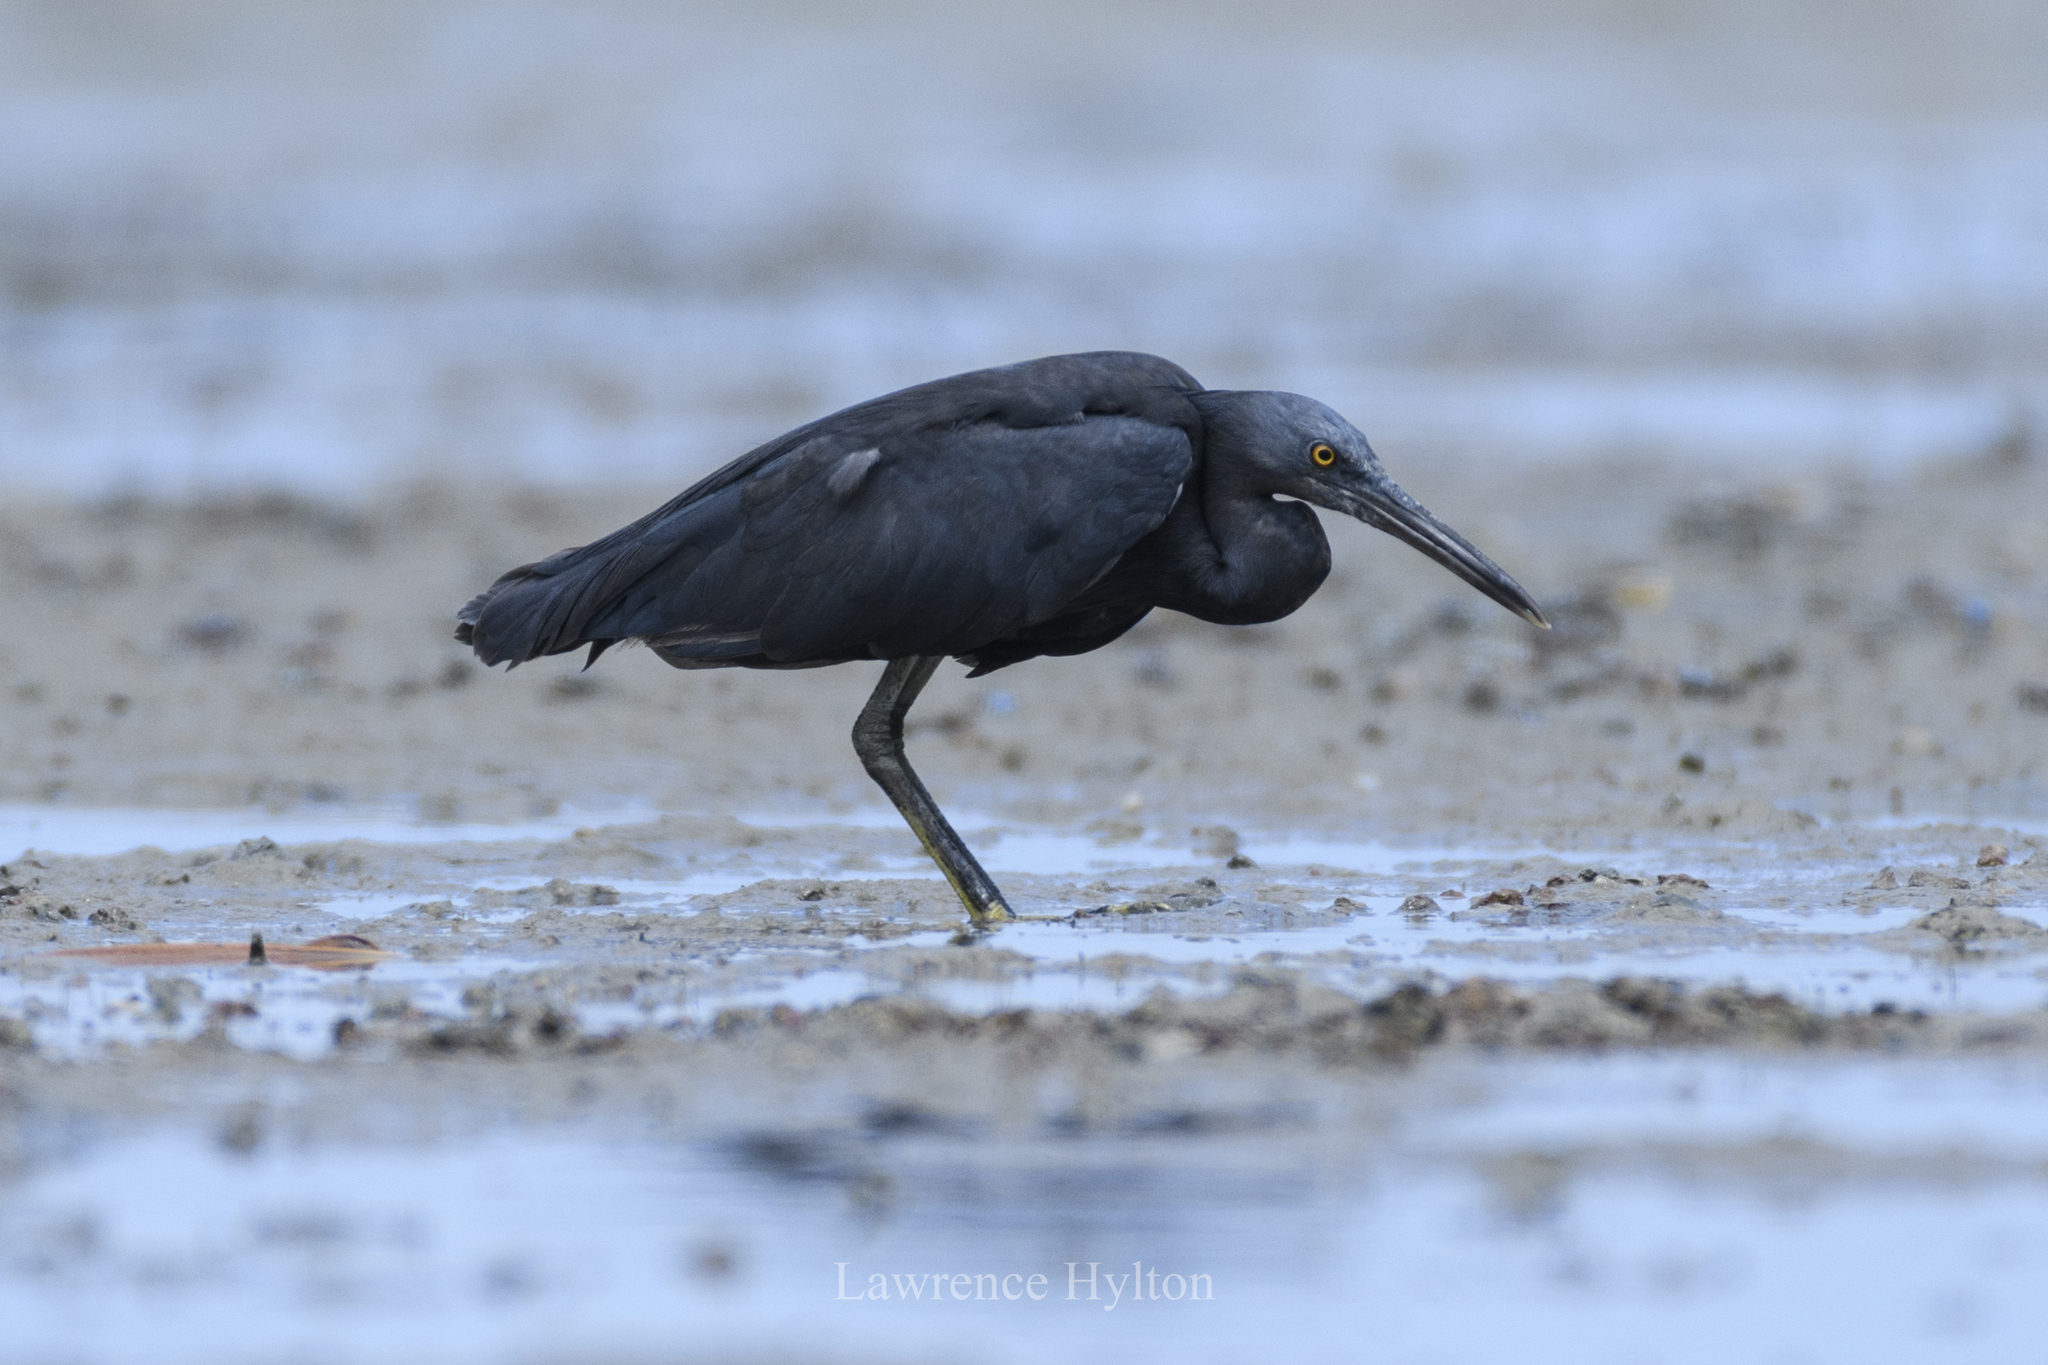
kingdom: Animalia
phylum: Chordata
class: Aves
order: Pelecaniformes
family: Ardeidae
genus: Egretta
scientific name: Egretta sacra
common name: Pacific reef heron
